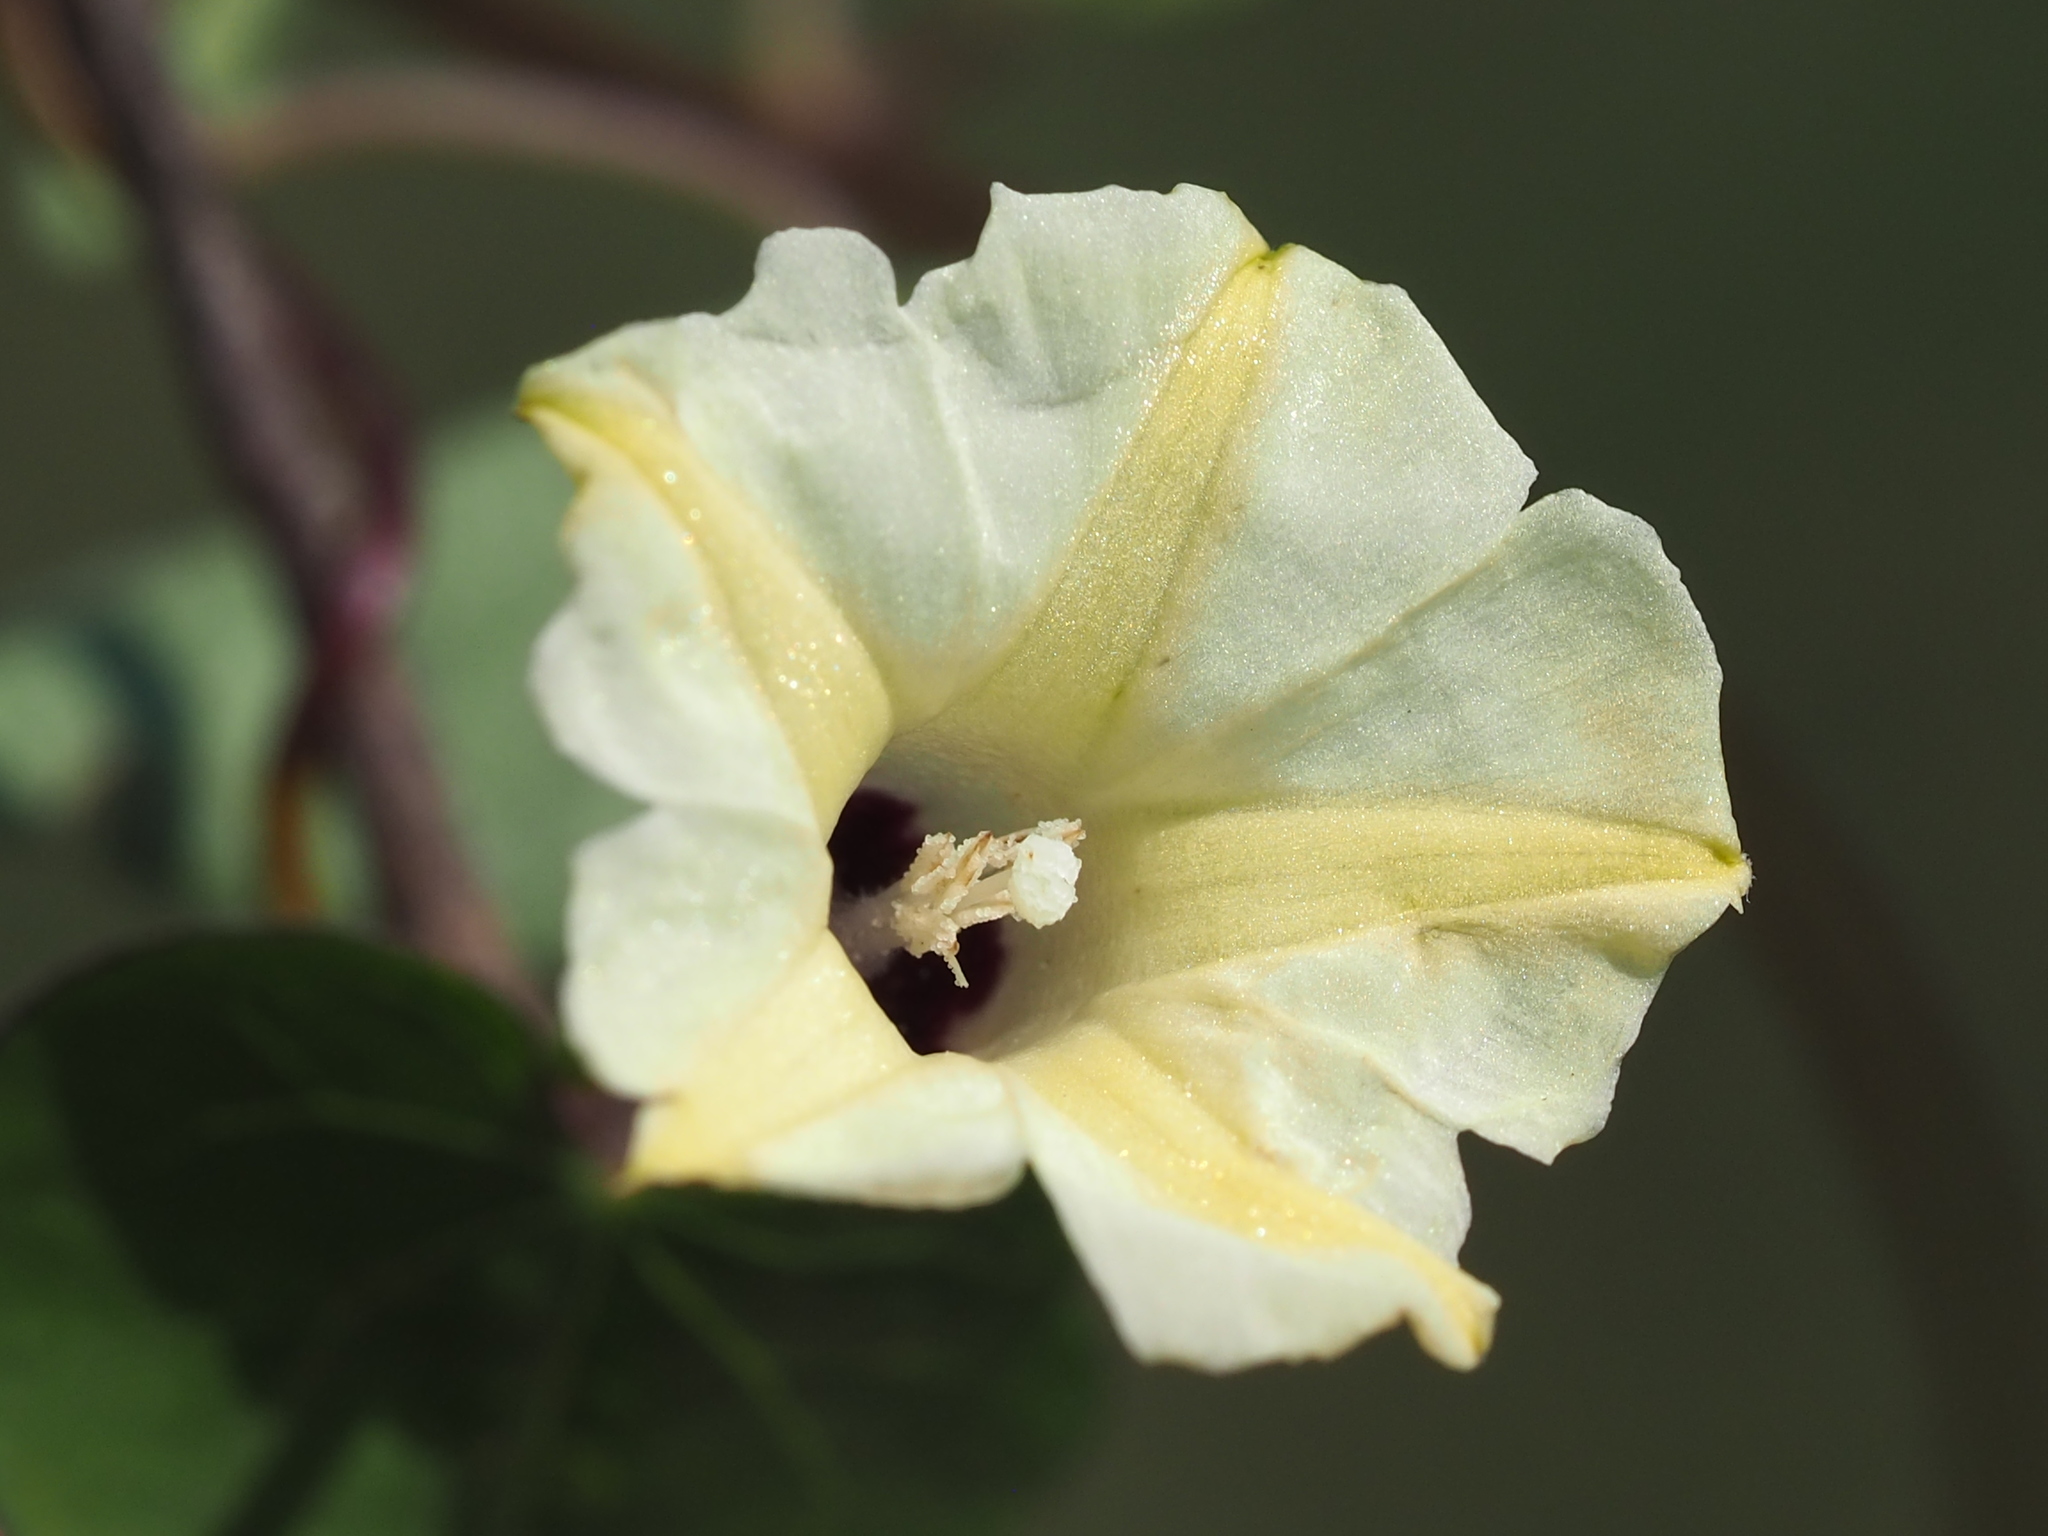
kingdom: Plantae
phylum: Tracheophyta
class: Magnoliopsida
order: Solanales
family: Convolvulaceae
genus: Ipomoea
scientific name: Ipomoea obscura
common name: Obscure morning-glory
